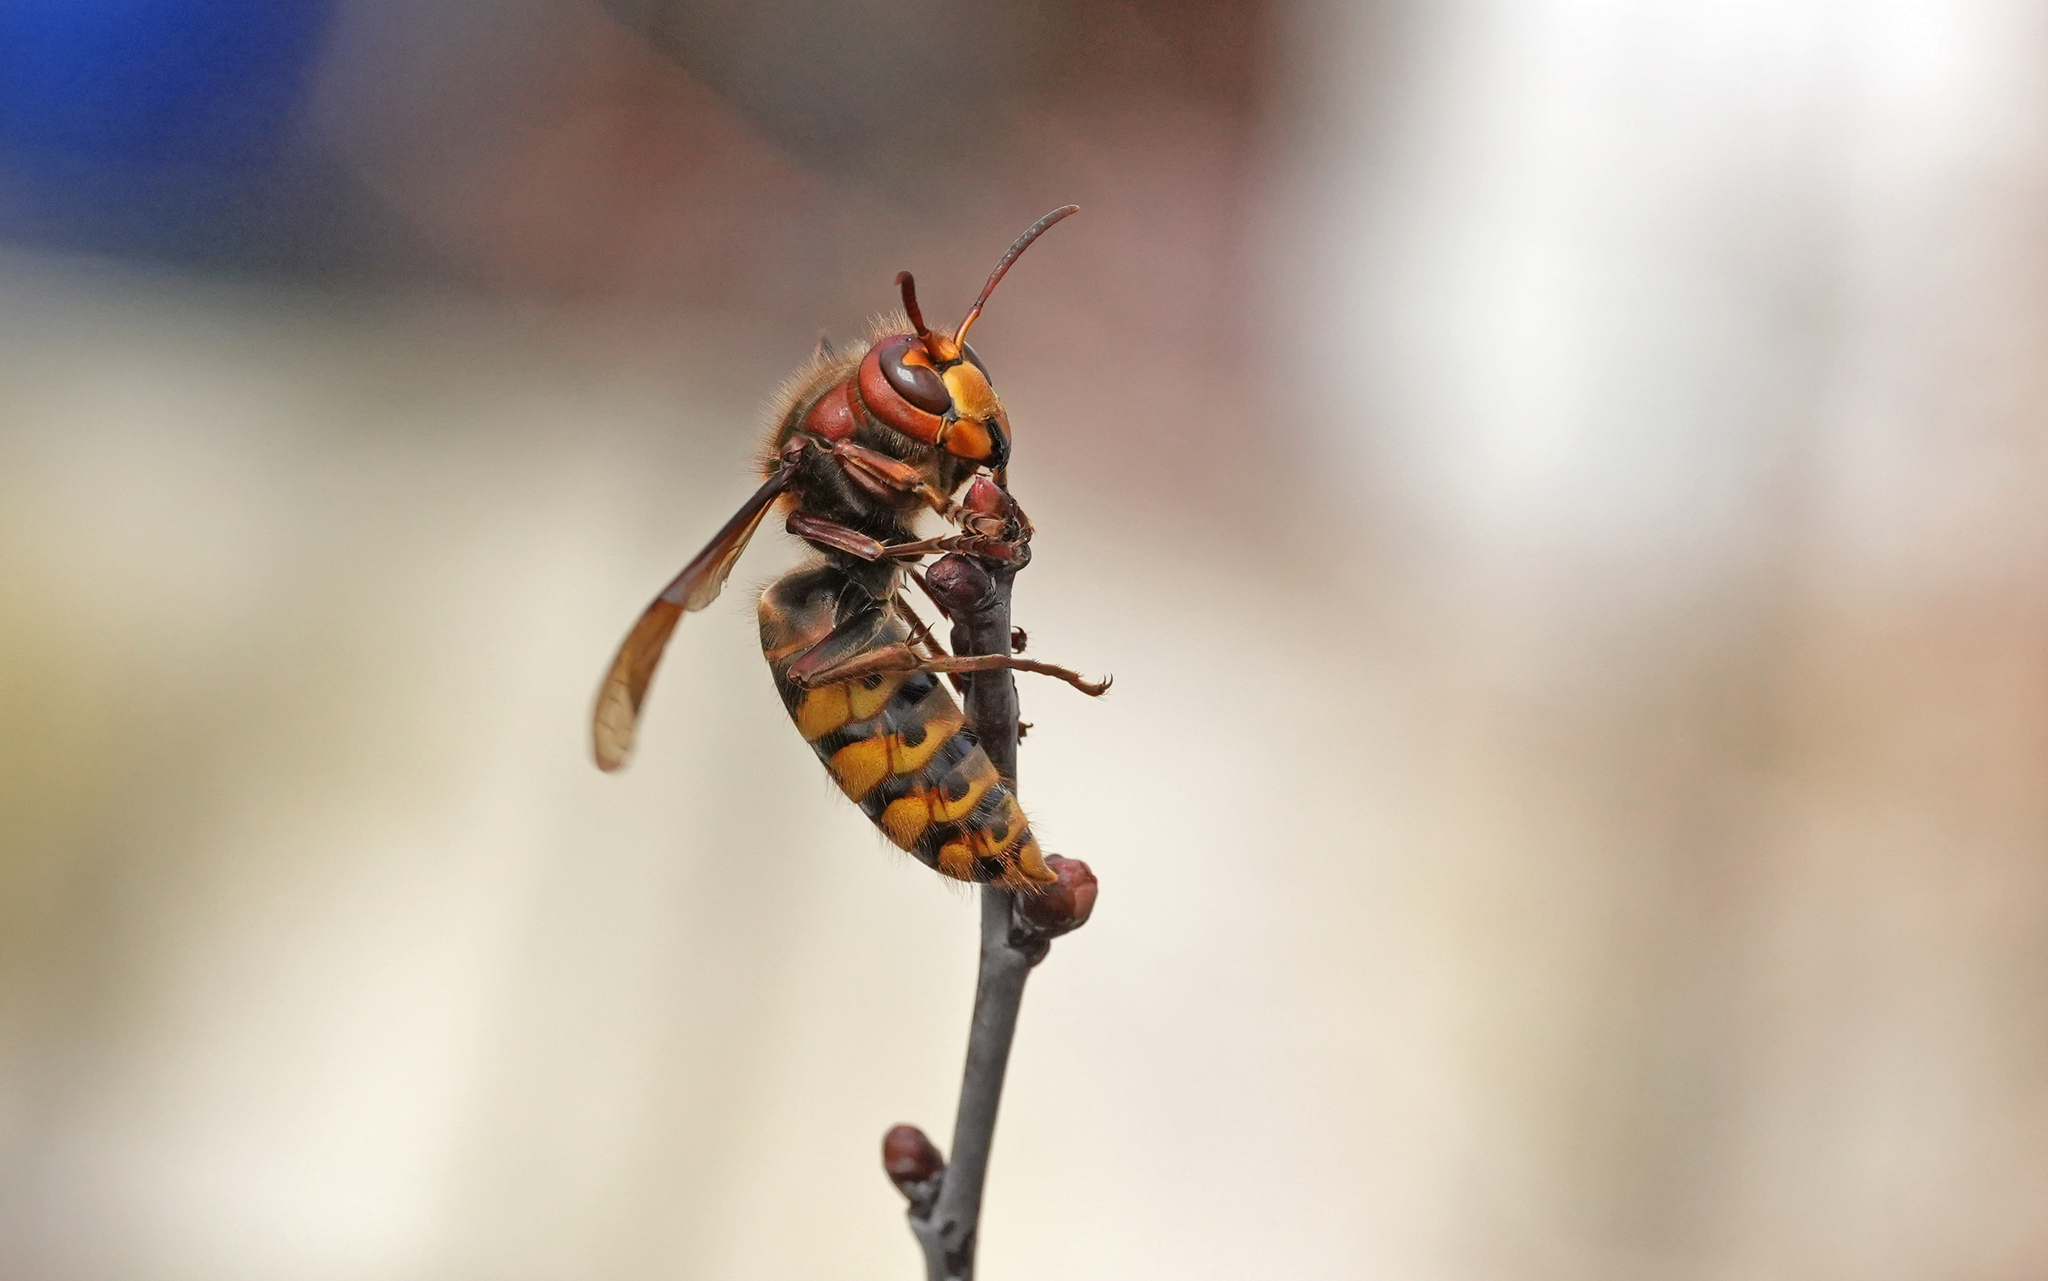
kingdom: Animalia
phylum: Arthropoda
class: Insecta
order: Hymenoptera
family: Vespidae
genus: Vespa
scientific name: Vespa crabro
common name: Hornet
